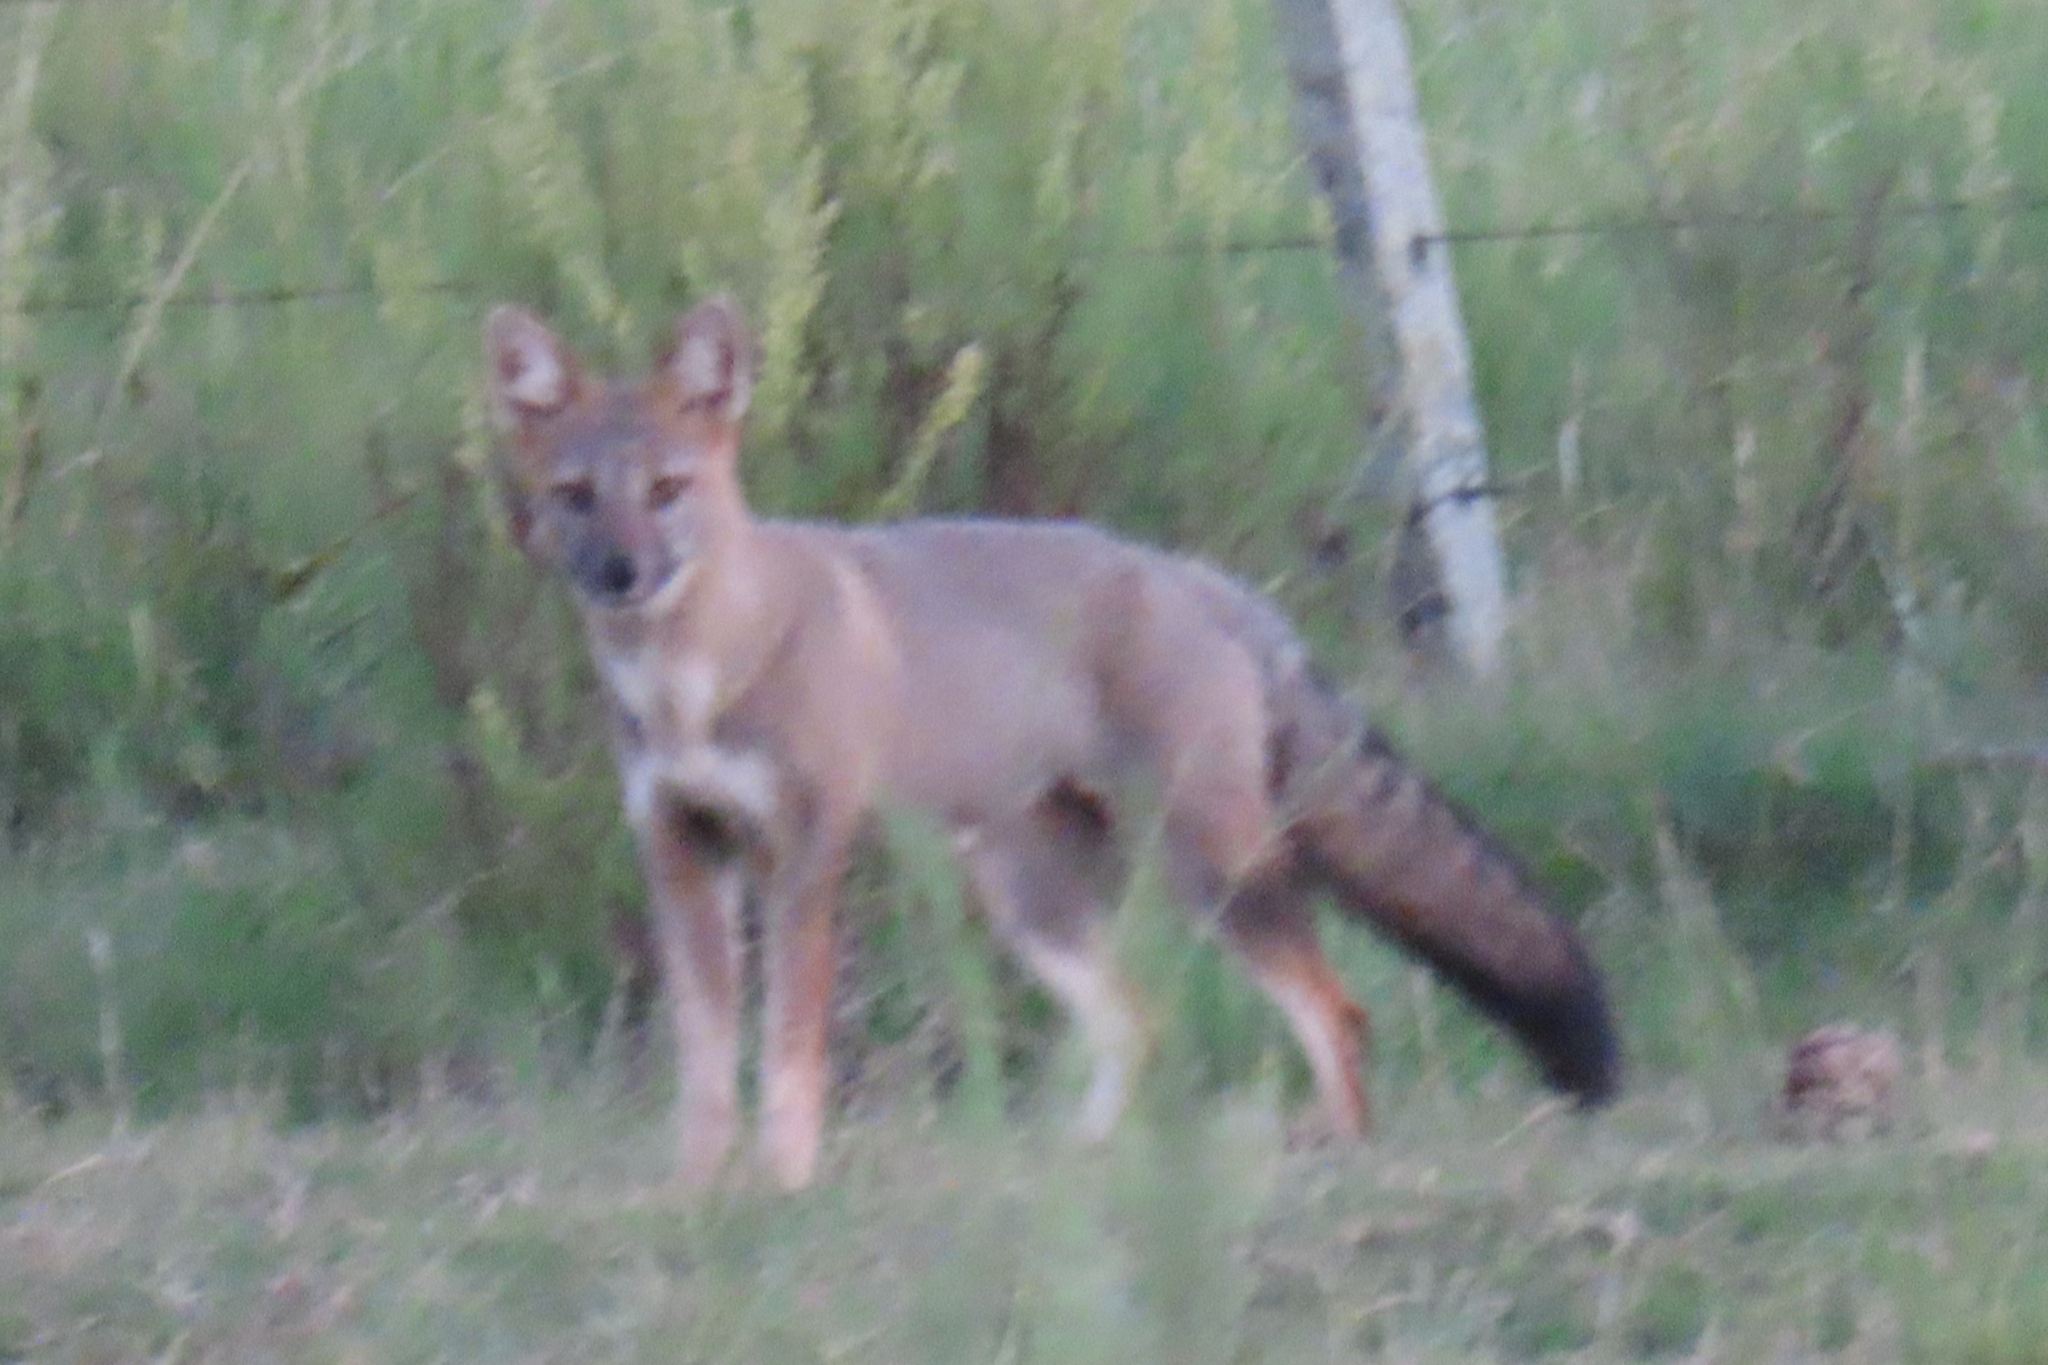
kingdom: Animalia
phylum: Chordata
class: Mammalia
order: Carnivora
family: Canidae
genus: Lycalopex
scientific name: Lycalopex gymnocercus
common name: Pampas fox
